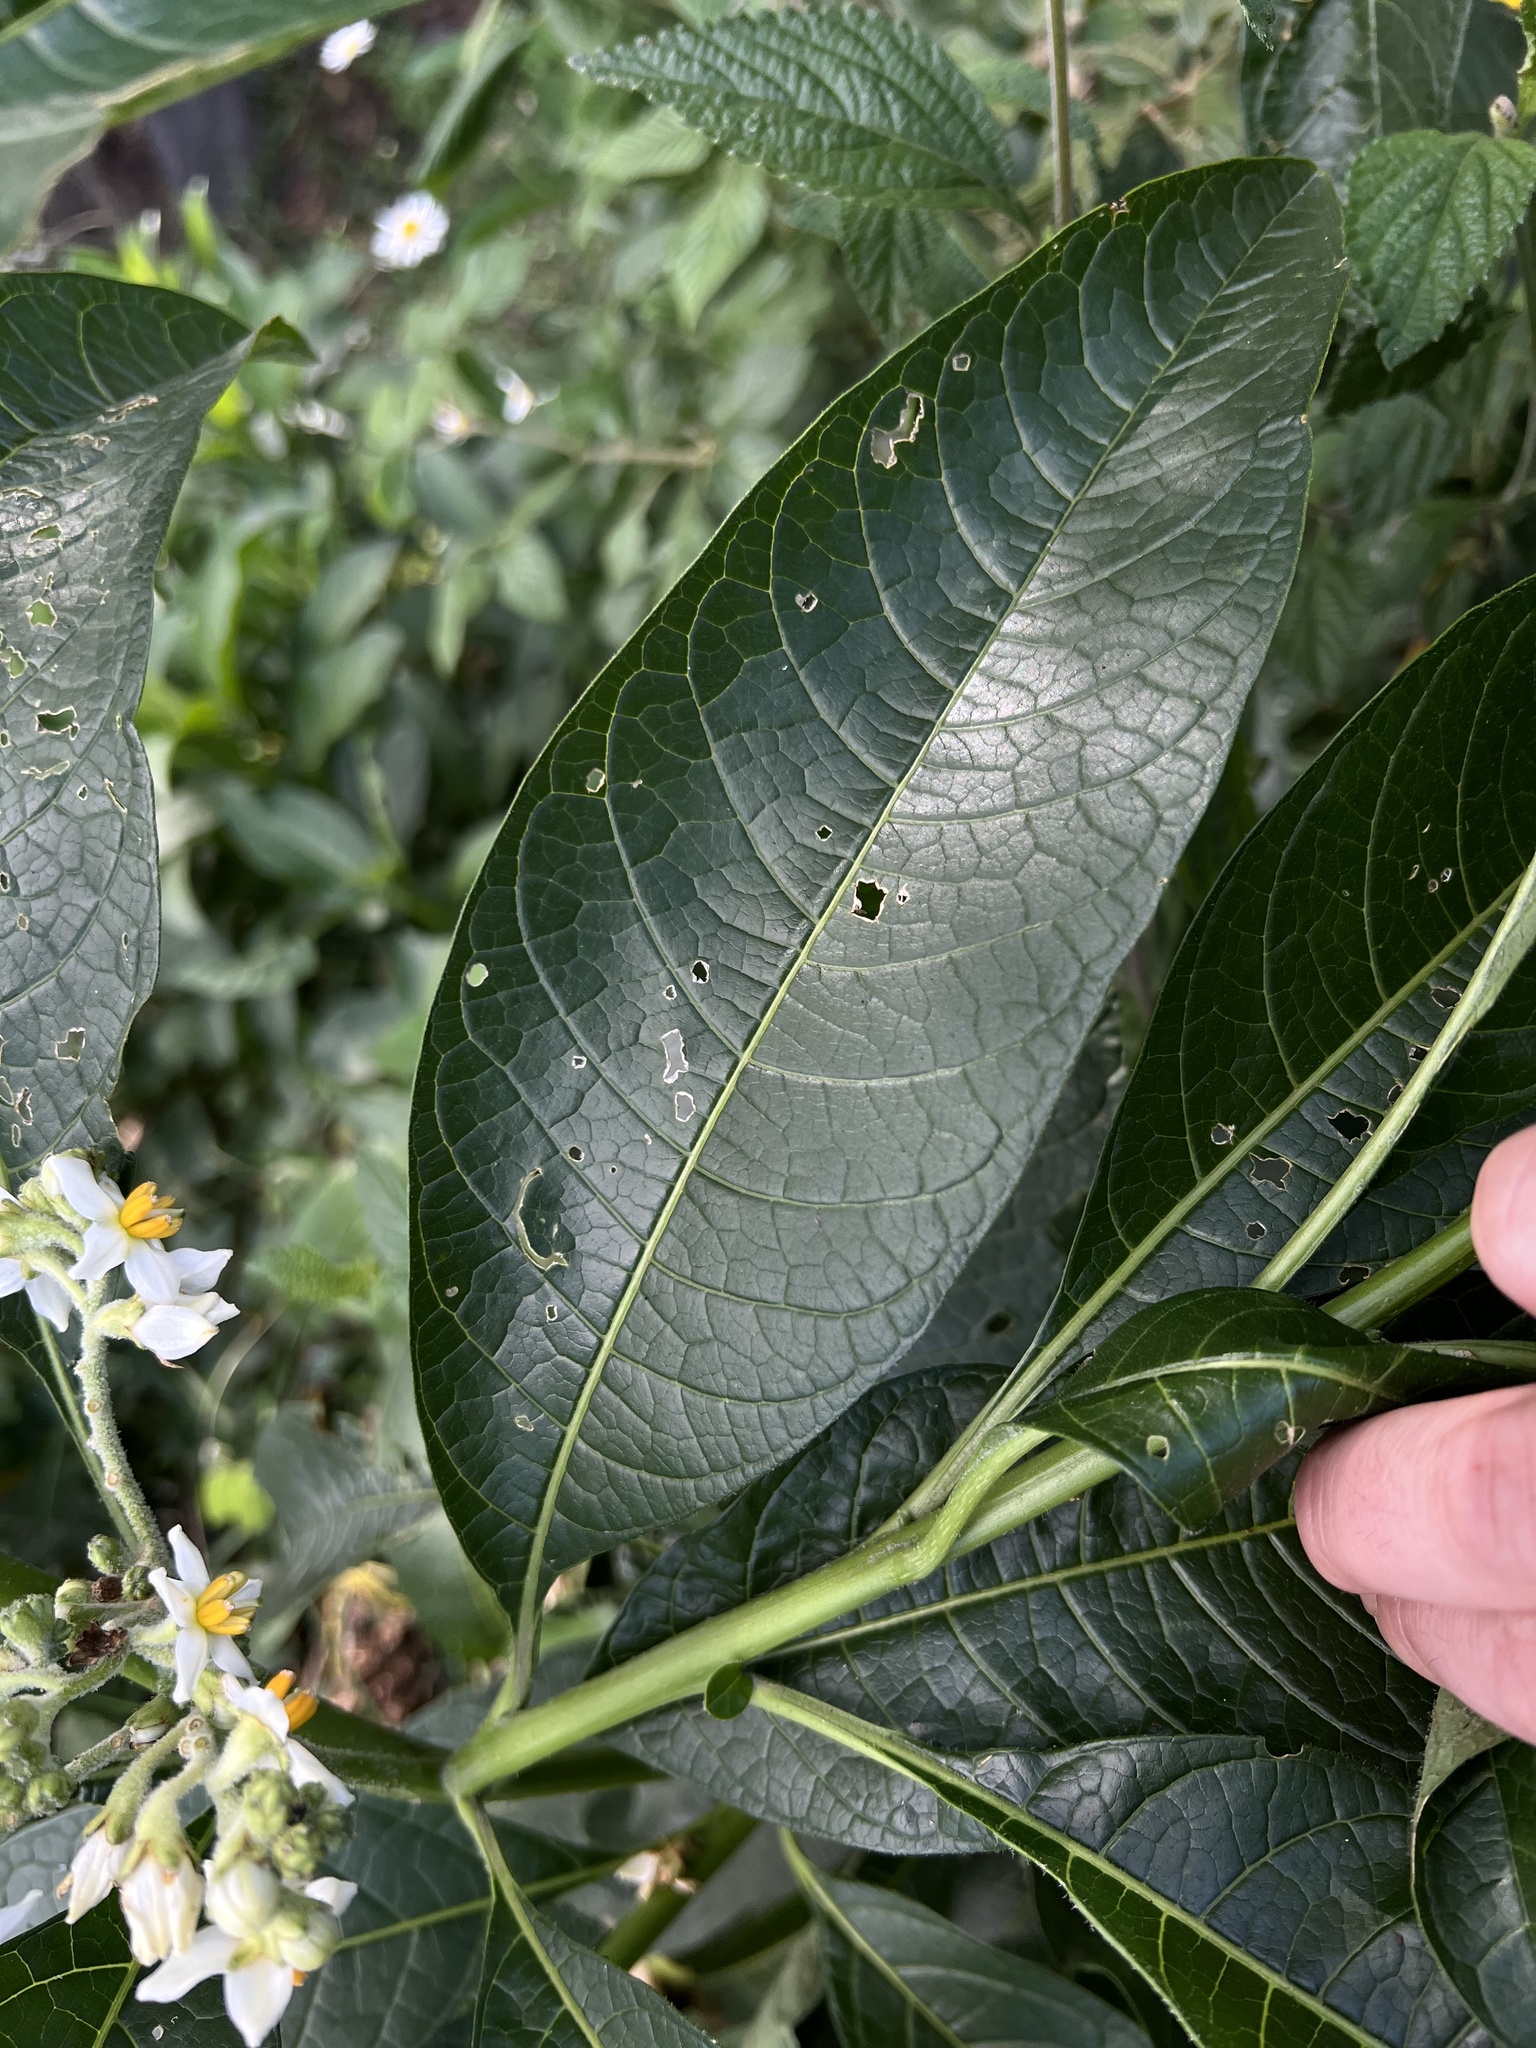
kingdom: Plantae
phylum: Tracheophyta
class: Magnoliopsida
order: Solanales
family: Solanaceae
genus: Solanum
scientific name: Solanum oblongifolium
